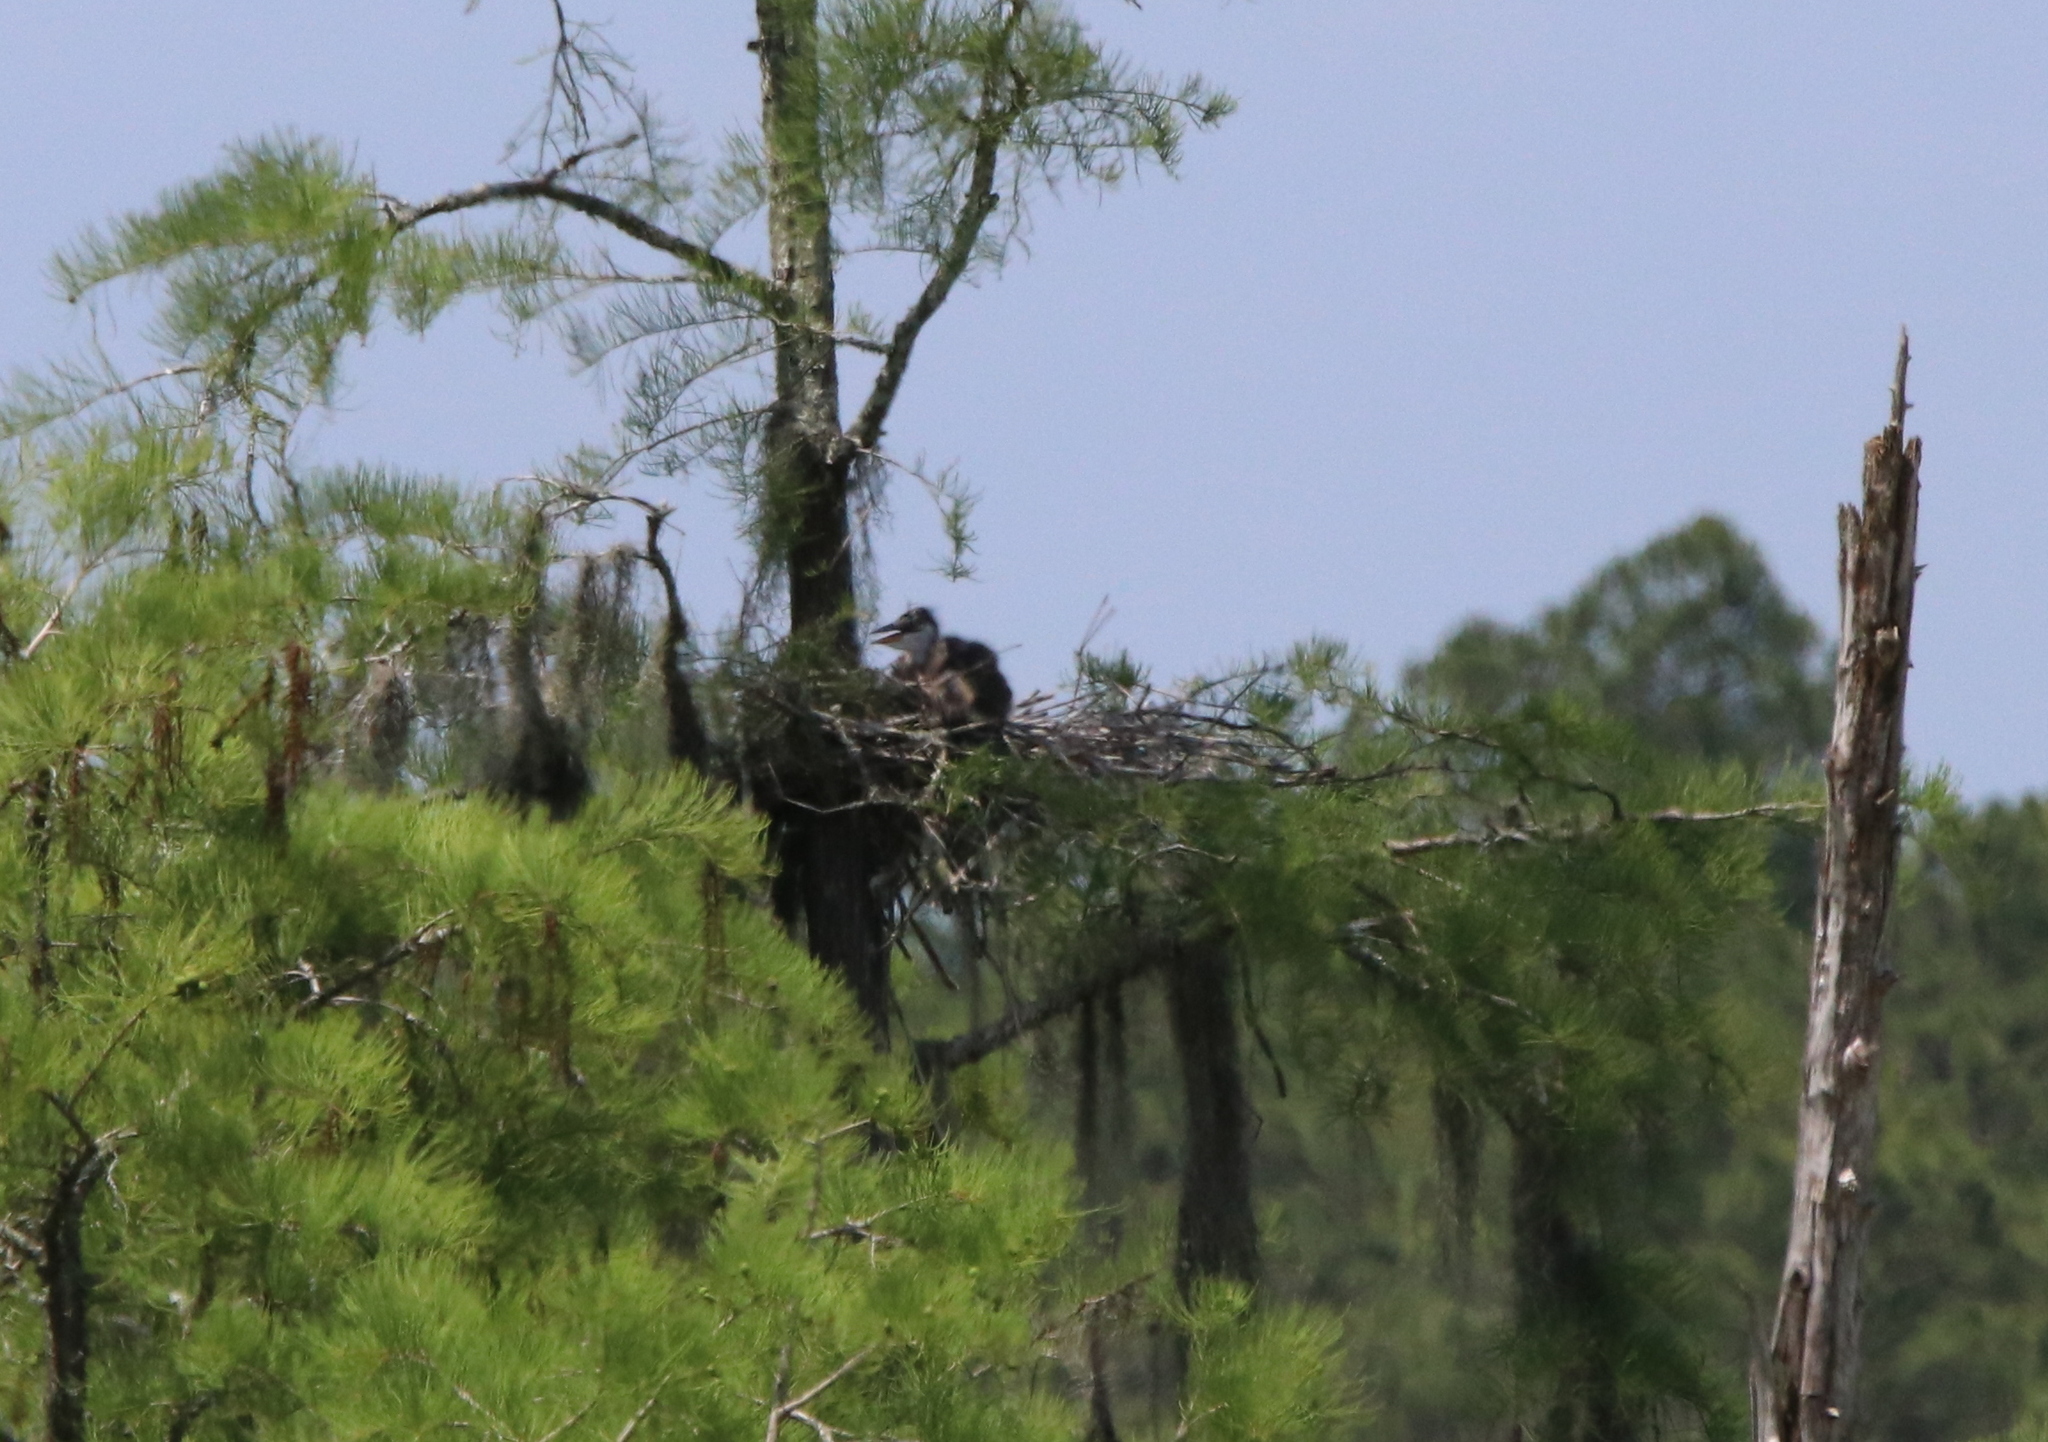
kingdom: Animalia
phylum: Chordata
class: Aves
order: Pelecaniformes
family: Ardeidae
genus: Ardea
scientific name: Ardea herodias
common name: Great blue heron
